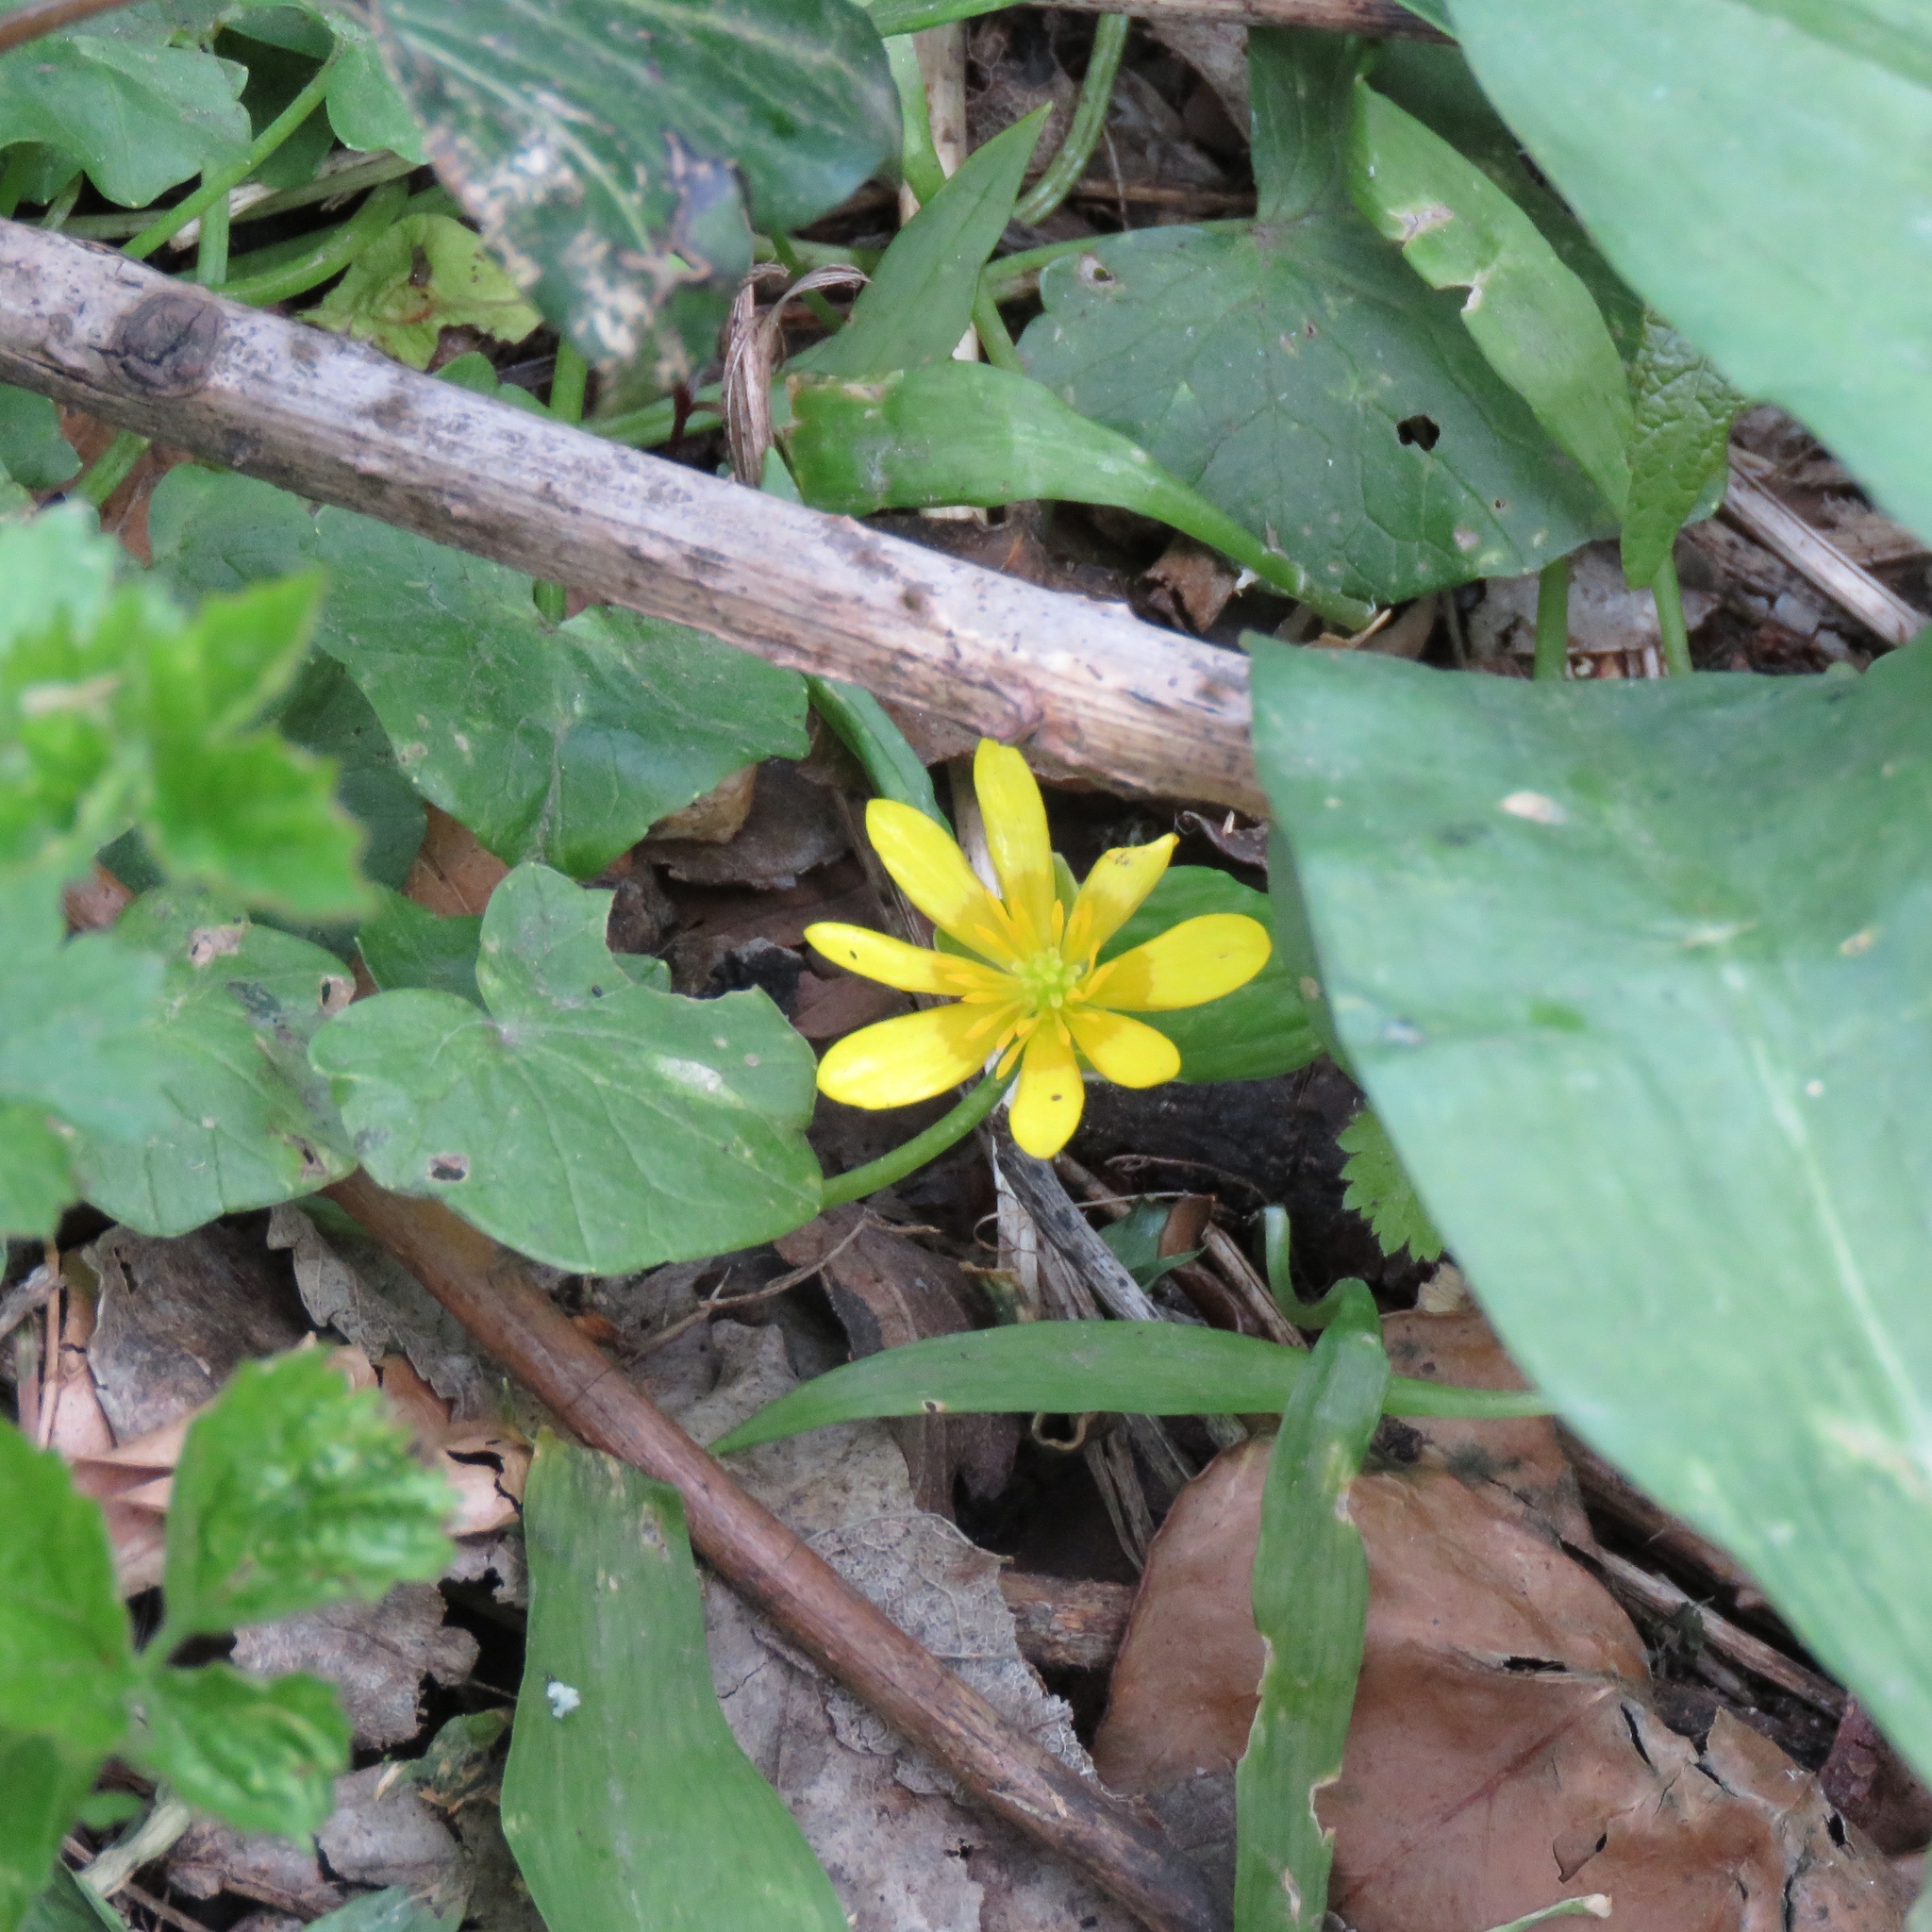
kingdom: Plantae
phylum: Tracheophyta
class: Magnoliopsida
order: Ranunculales
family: Ranunculaceae
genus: Ficaria
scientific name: Ficaria verna
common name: Lesser celandine
